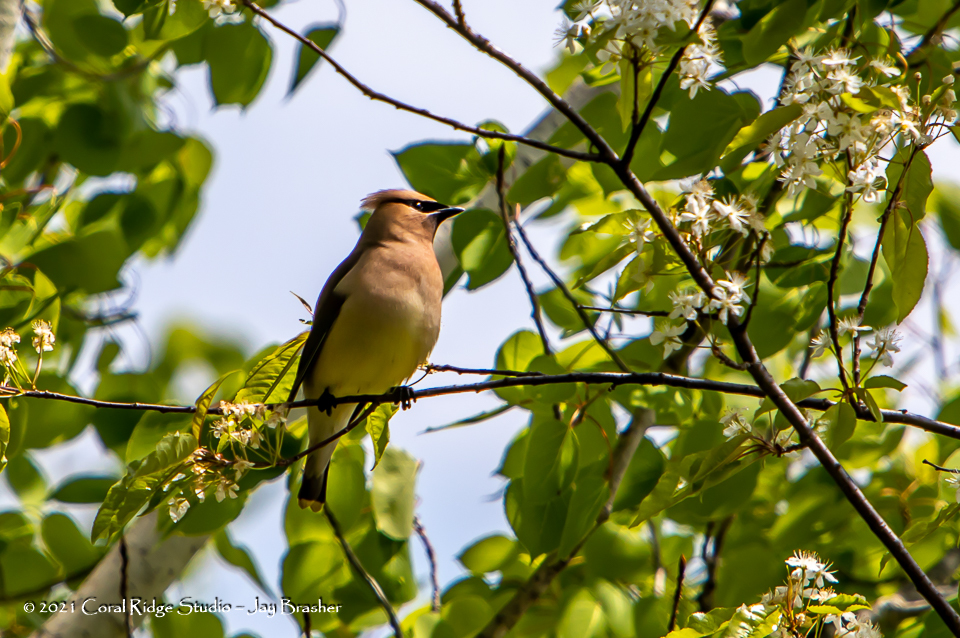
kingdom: Animalia
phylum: Chordata
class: Aves
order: Passeriformes
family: Bombycillidae
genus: Bombycilla
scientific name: Bombycilla cedrorum
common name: Cedar waxwing
